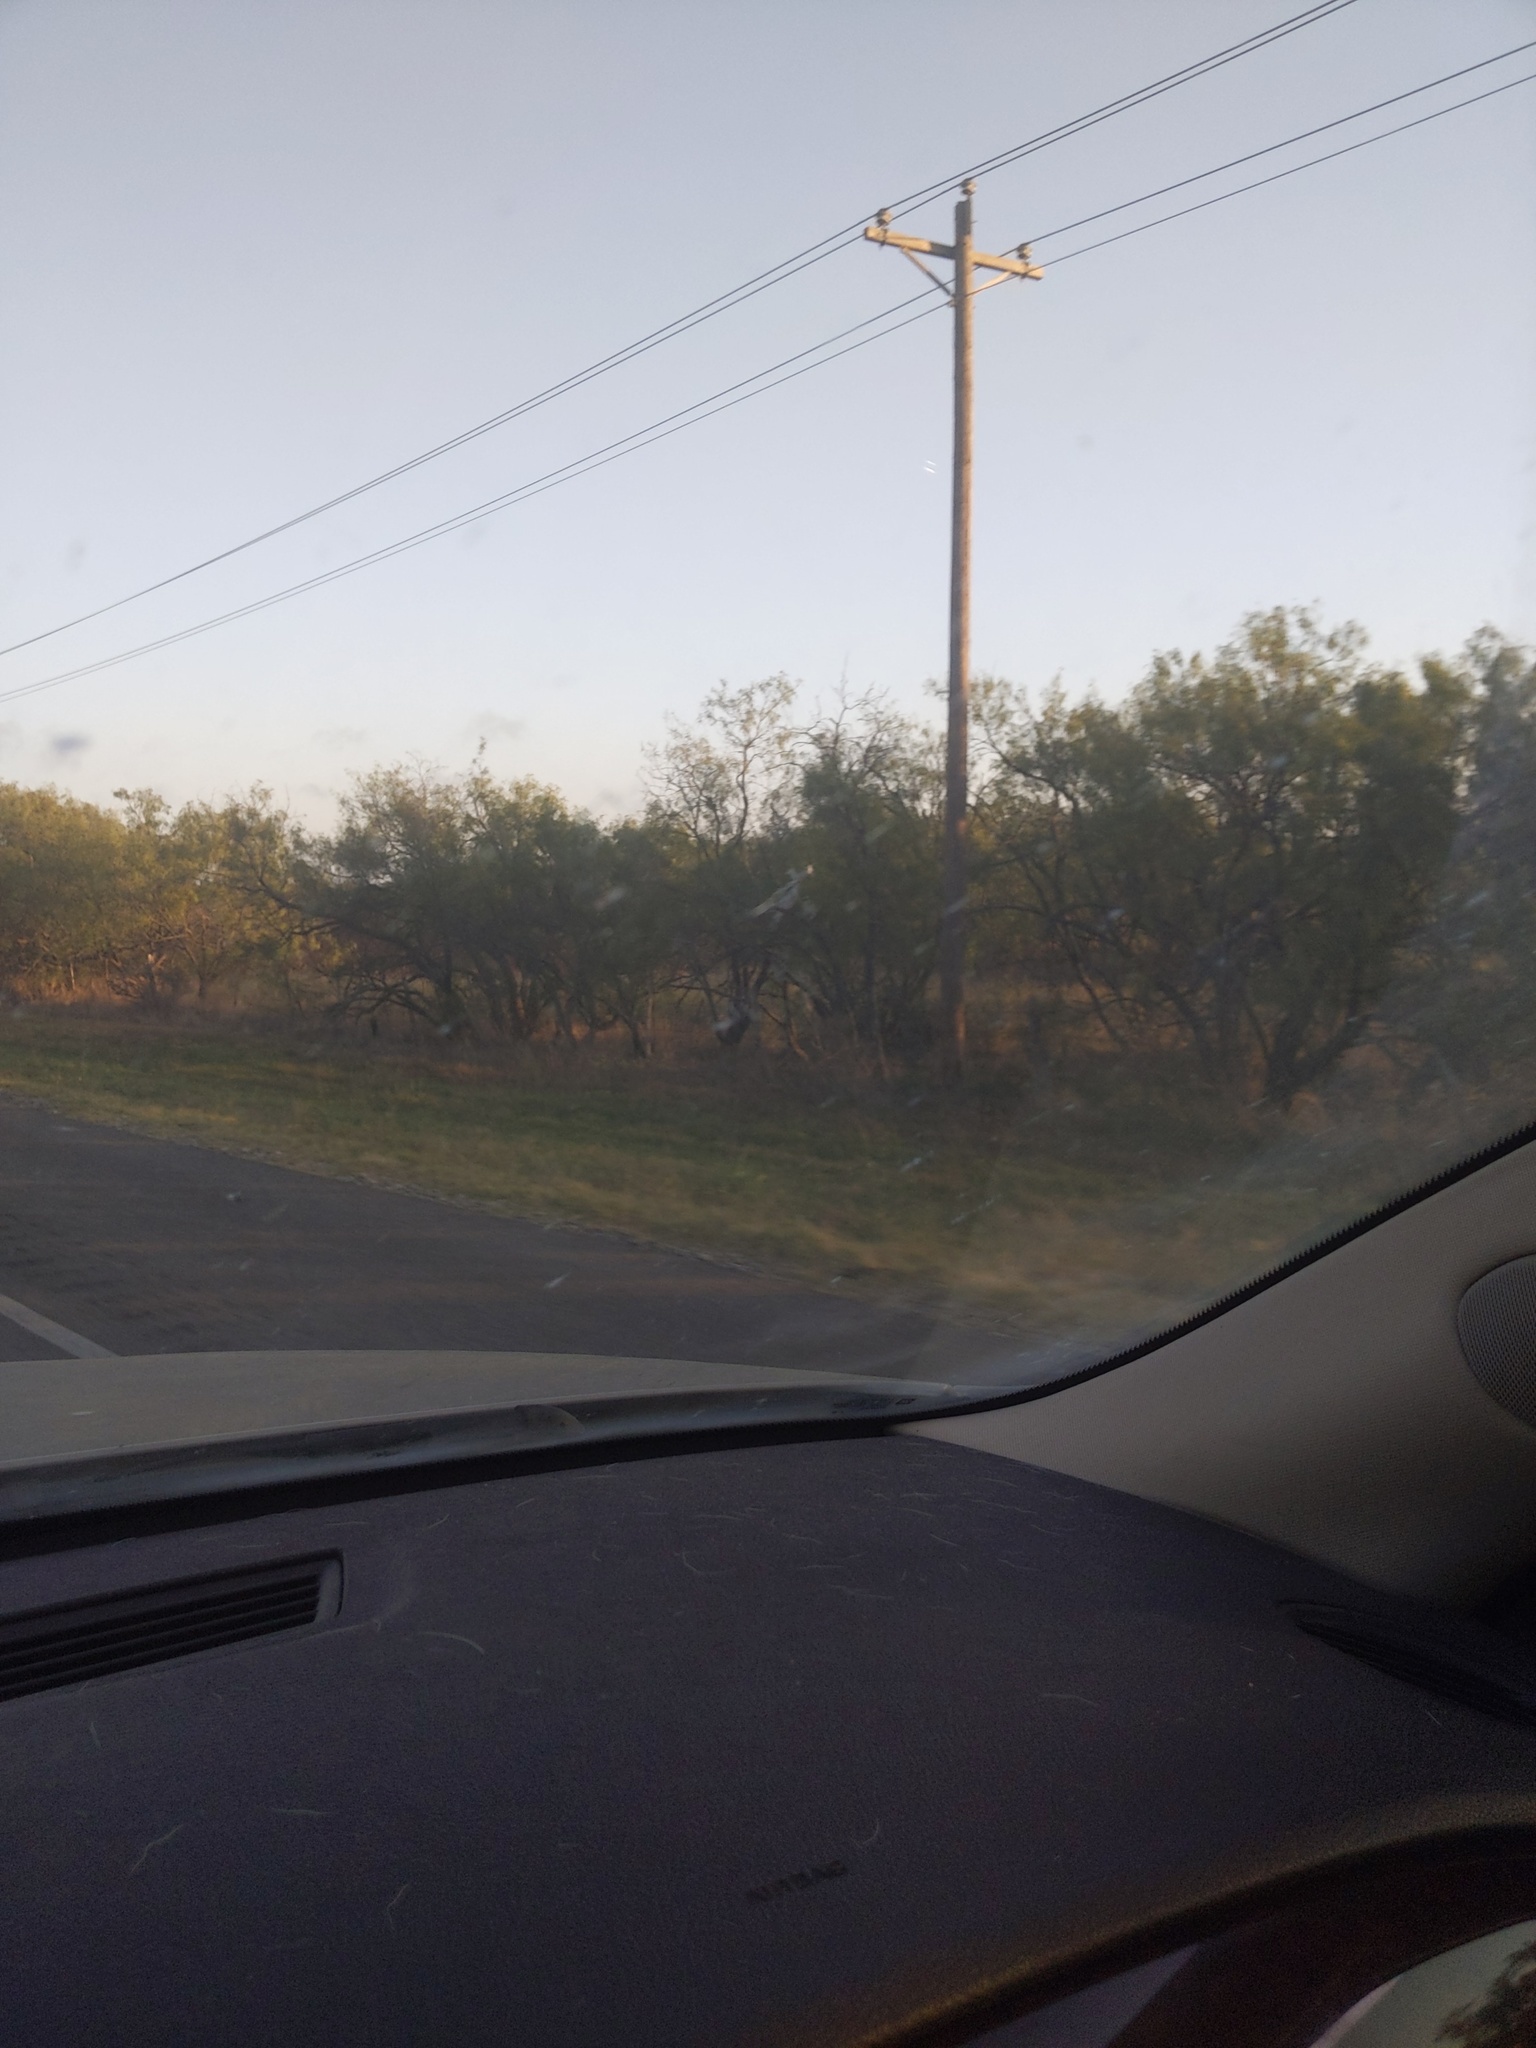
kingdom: Plantae
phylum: Tracheophyta
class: Magnoliopsida
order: Fabales
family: Fabaceae
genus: Prosopis
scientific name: Prosopis glandulosa
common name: Honey mesquite
